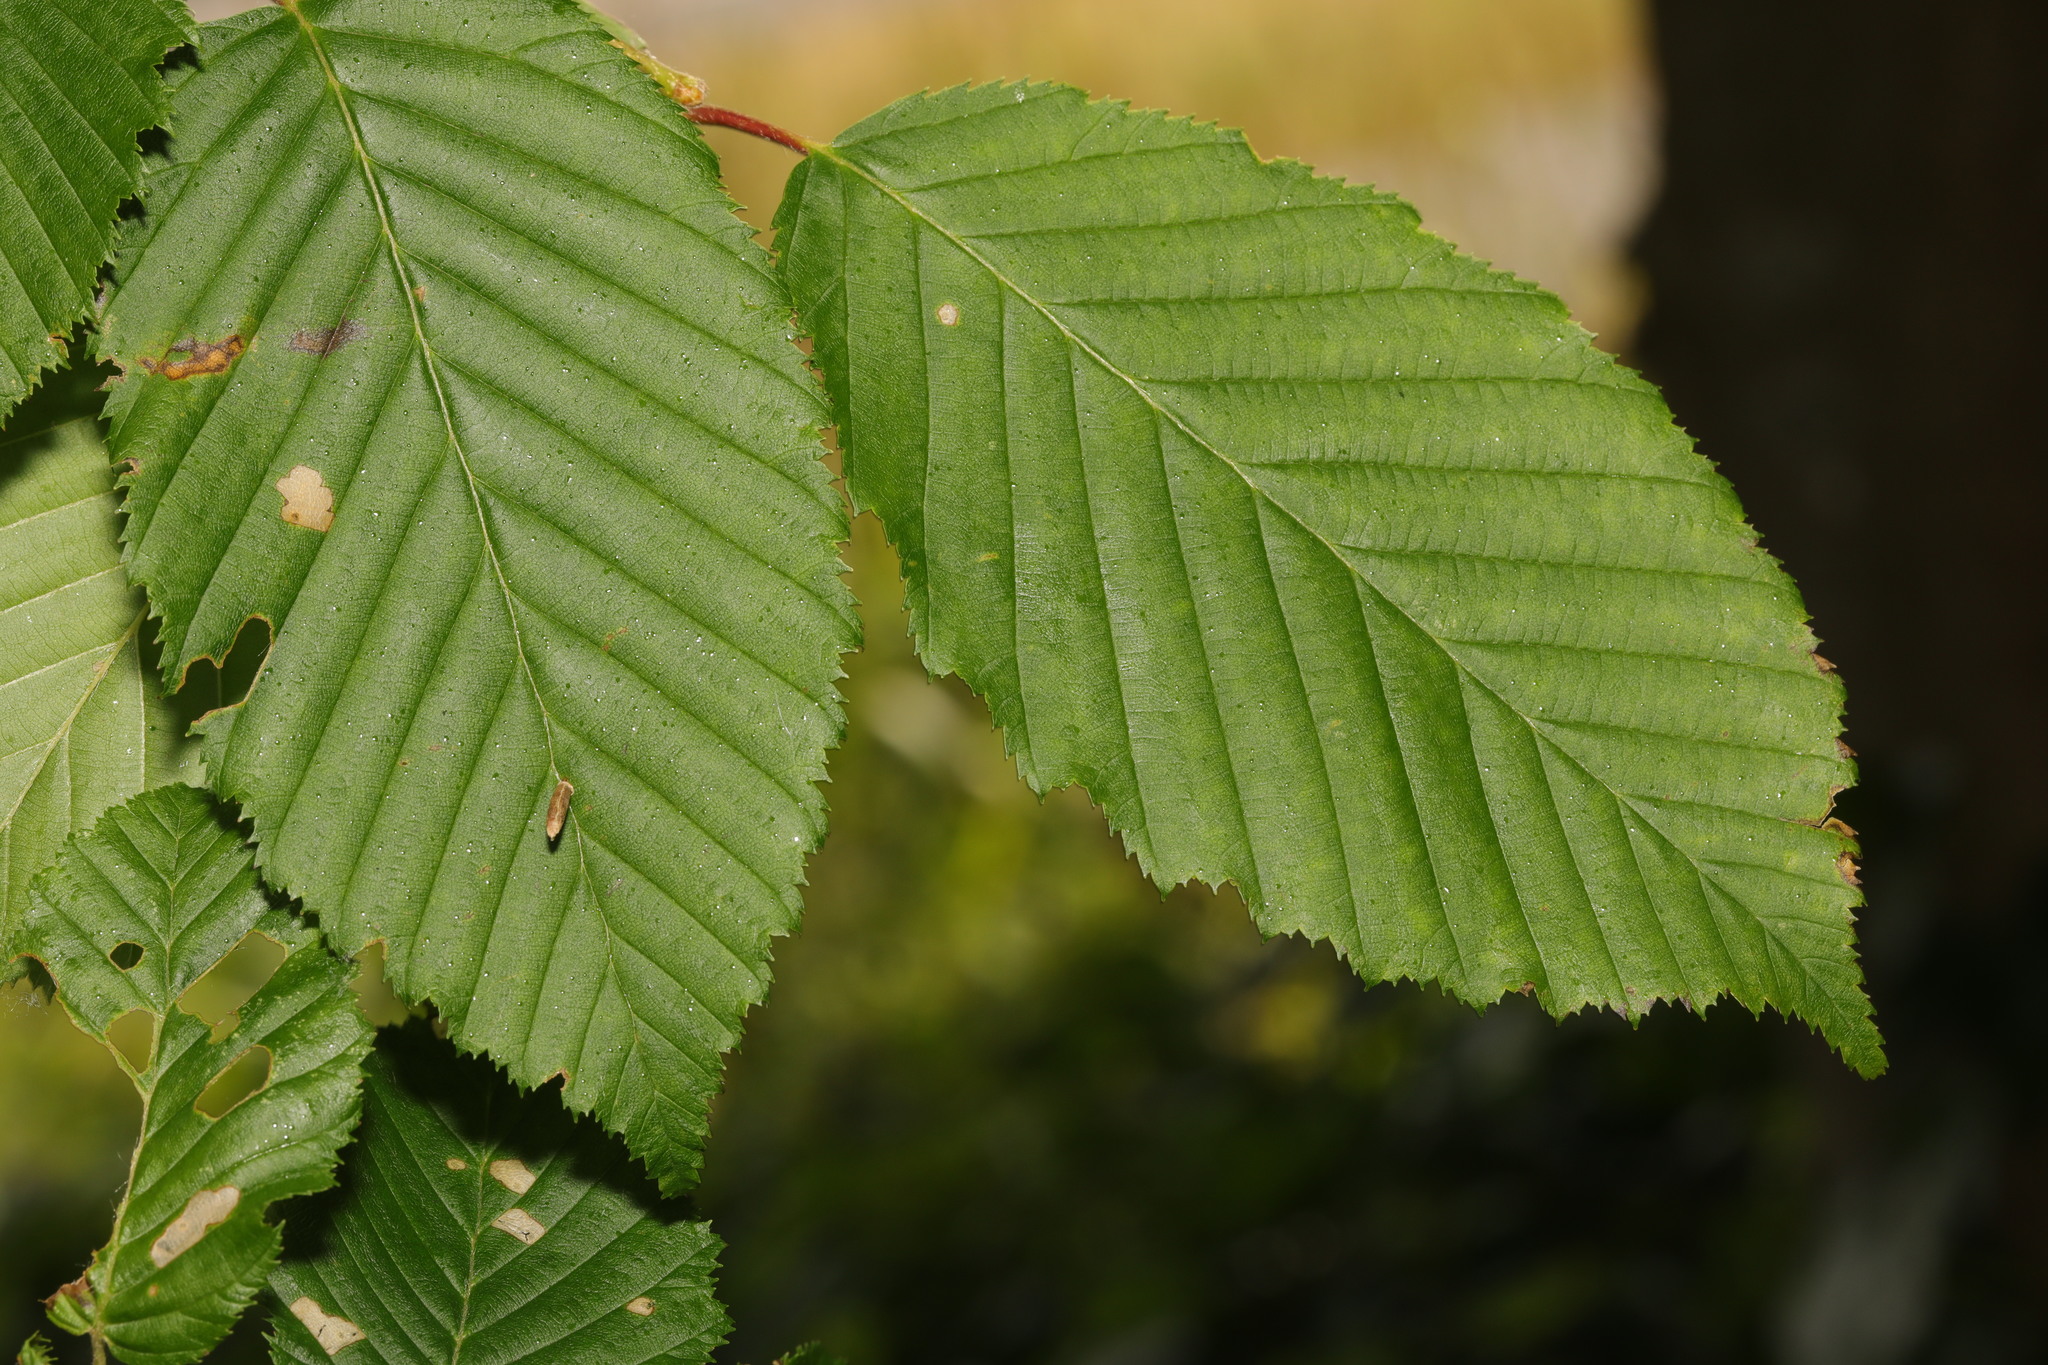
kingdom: Plantae
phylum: Tracheophyta
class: Magnoliopsida
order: Fagales
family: Betulaceae
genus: Carpinus
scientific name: Carpinus betulus
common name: Hornbeam
